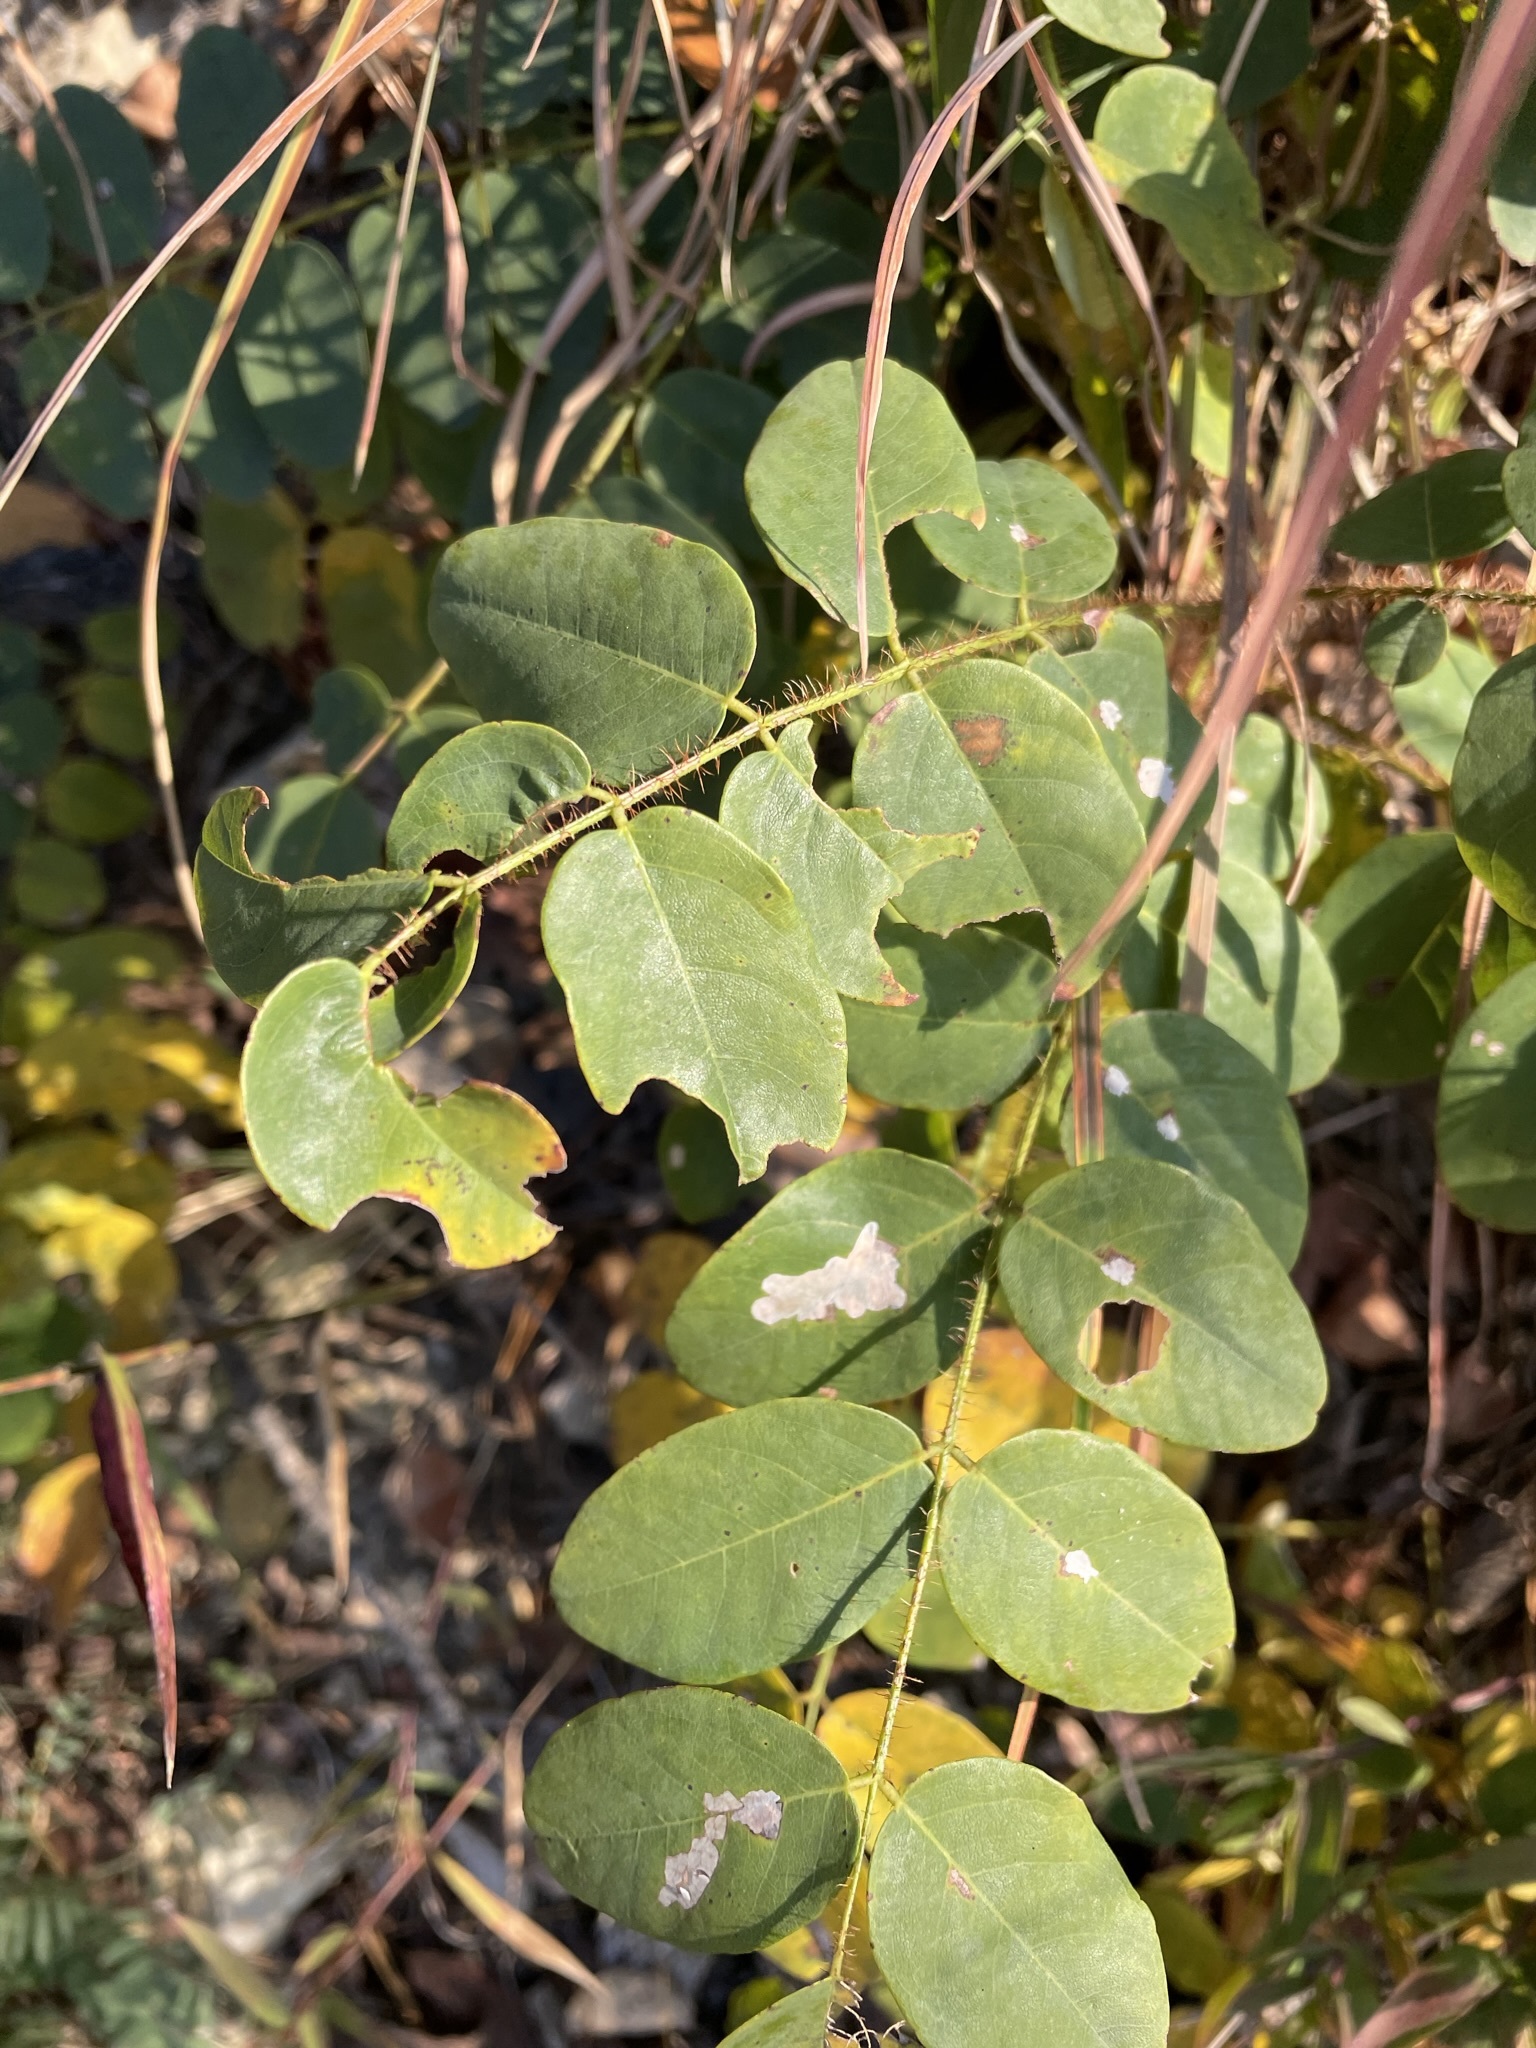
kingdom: Plantae
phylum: Tracheophyta
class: Magnoliopsida
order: Fabales
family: Fabaceae
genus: Robinia
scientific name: Robinia hispida
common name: Bristly locust
